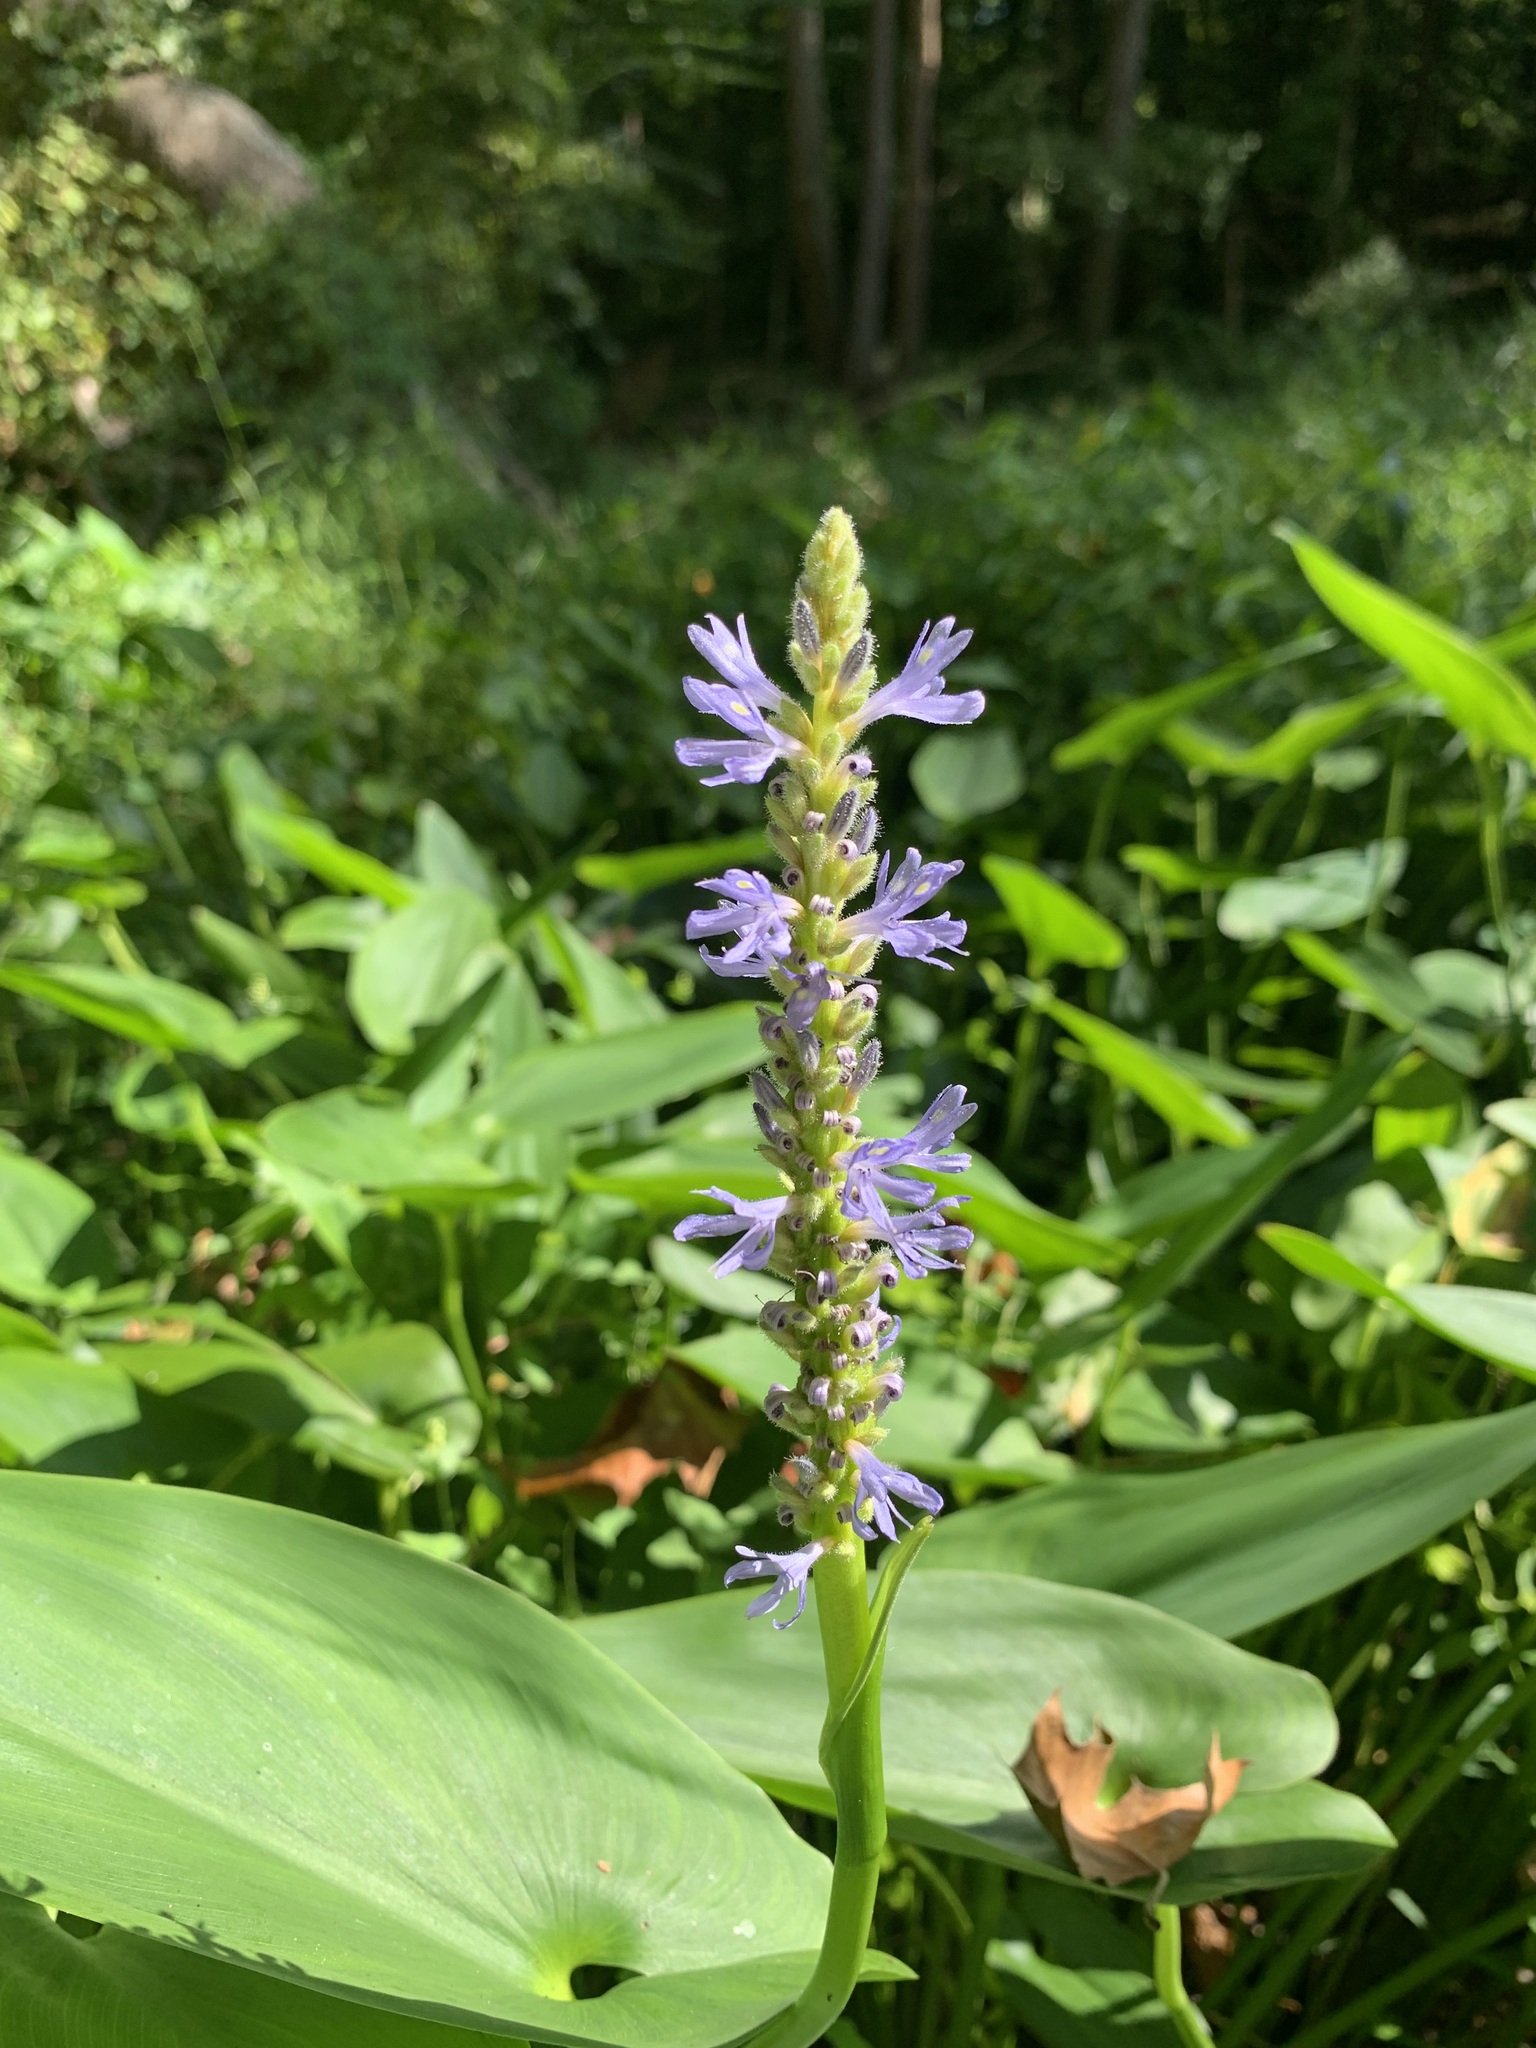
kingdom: Plantae
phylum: Tracheophyta
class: Liliopsida
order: Commelinales
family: Pontederiaceae
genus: Pontederia
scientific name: Pontederia cordata
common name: Pickerelweed
